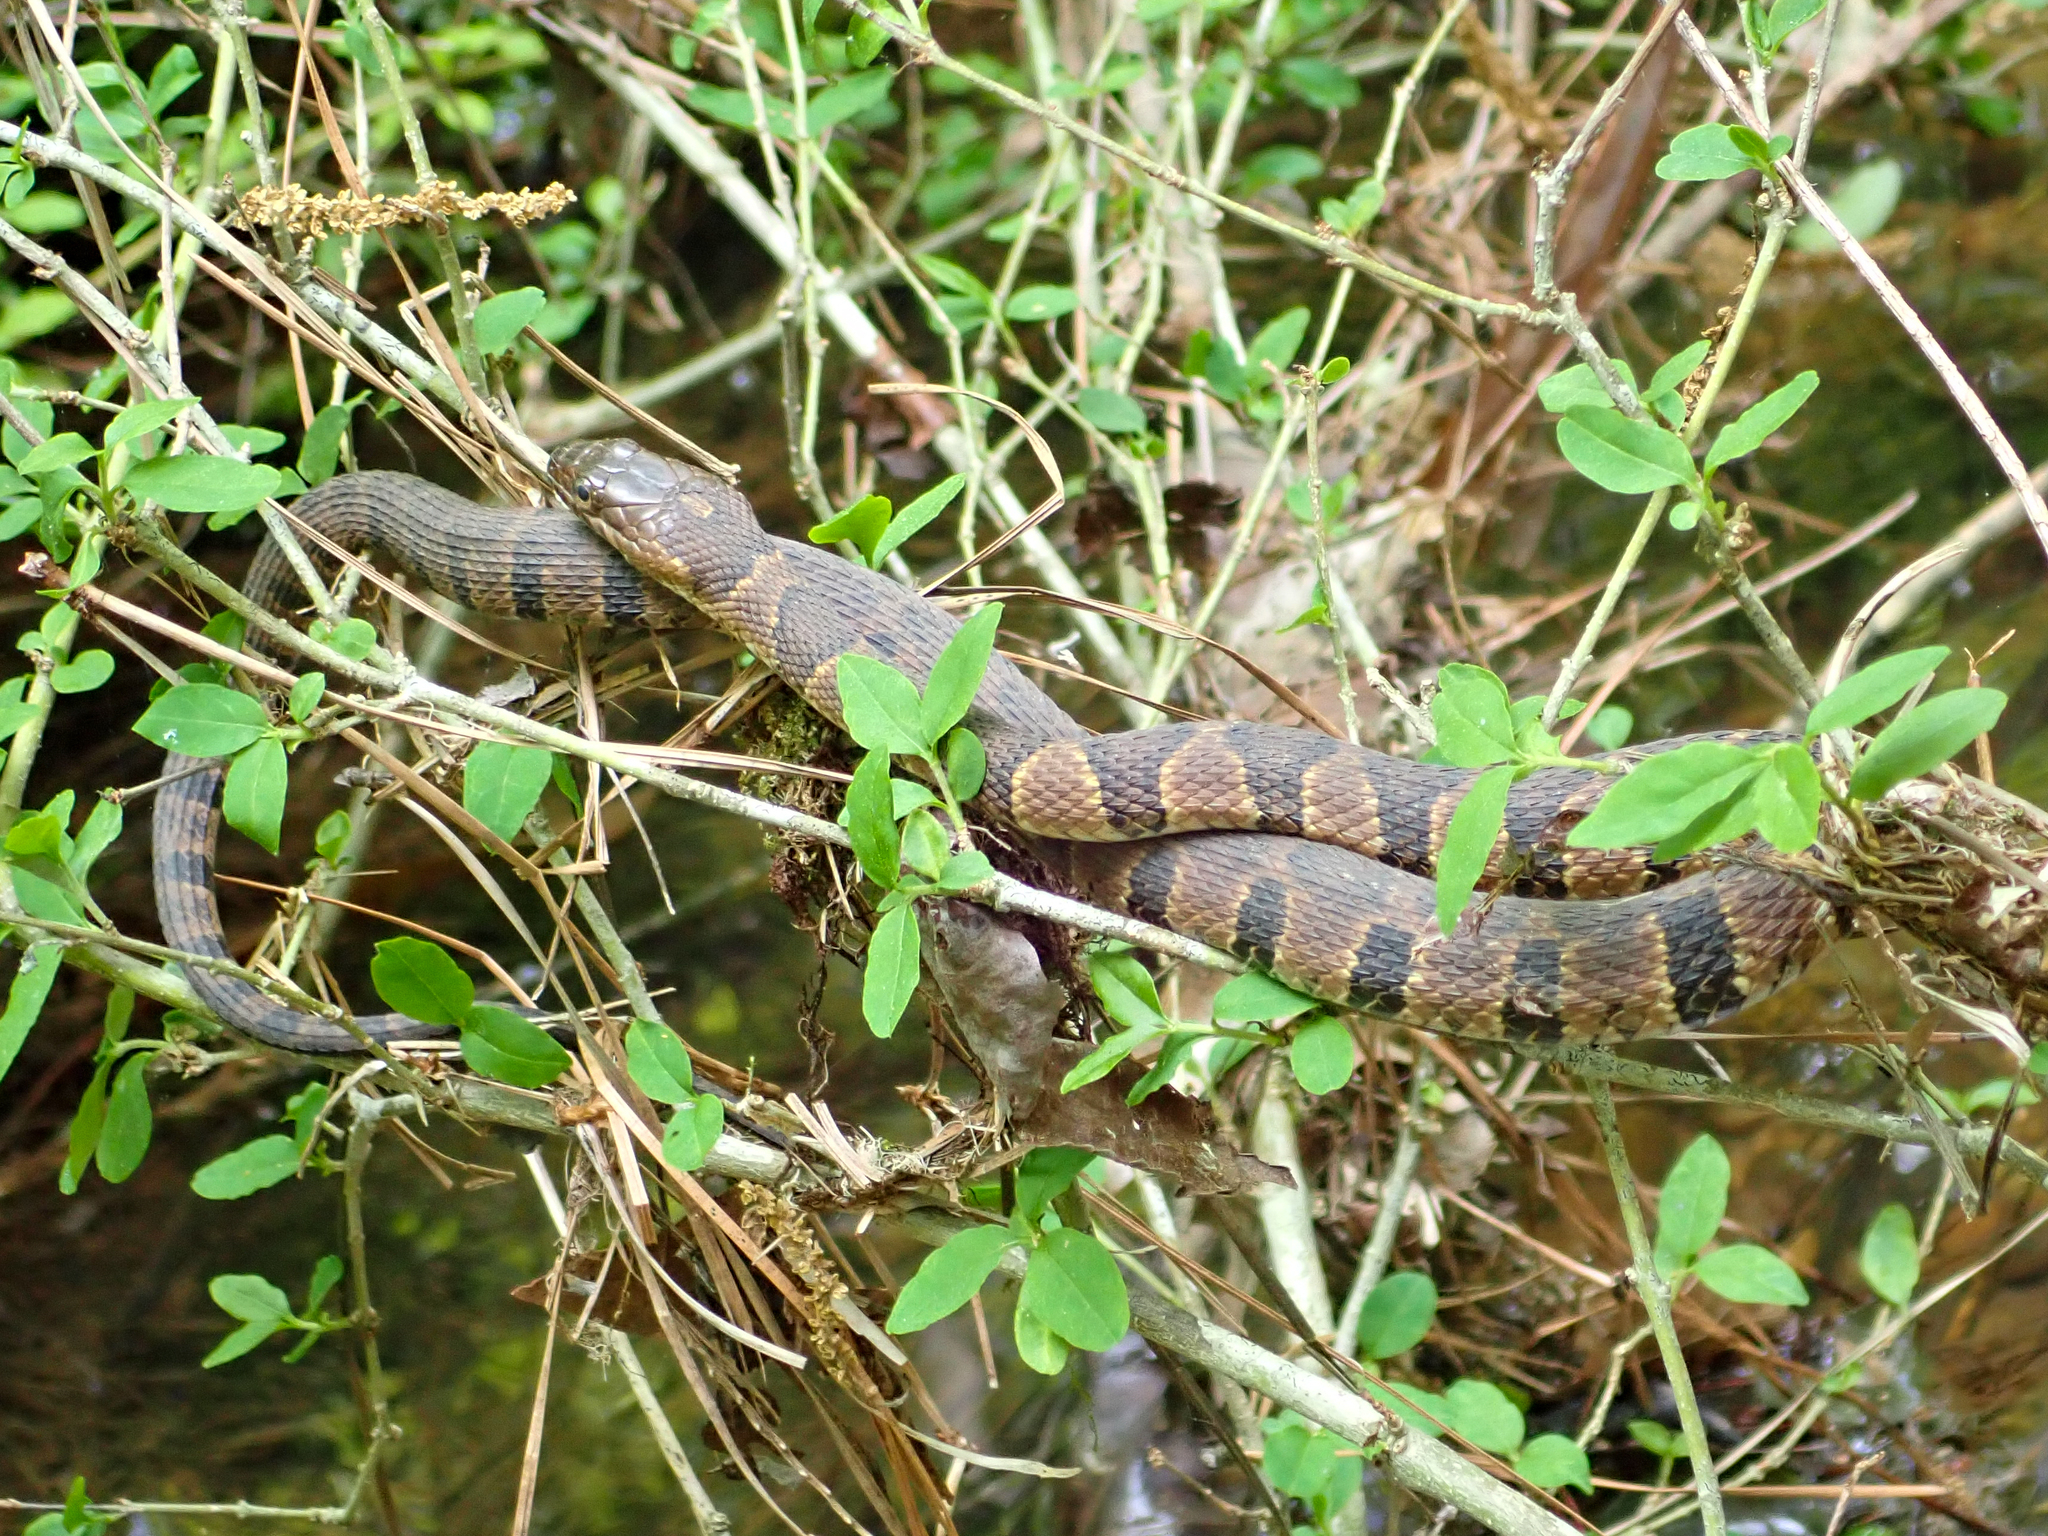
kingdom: Animalia
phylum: Chordata
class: Squamata
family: Colubridae
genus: Nerodia
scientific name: Nerodia sipedon
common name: Northern water snake
